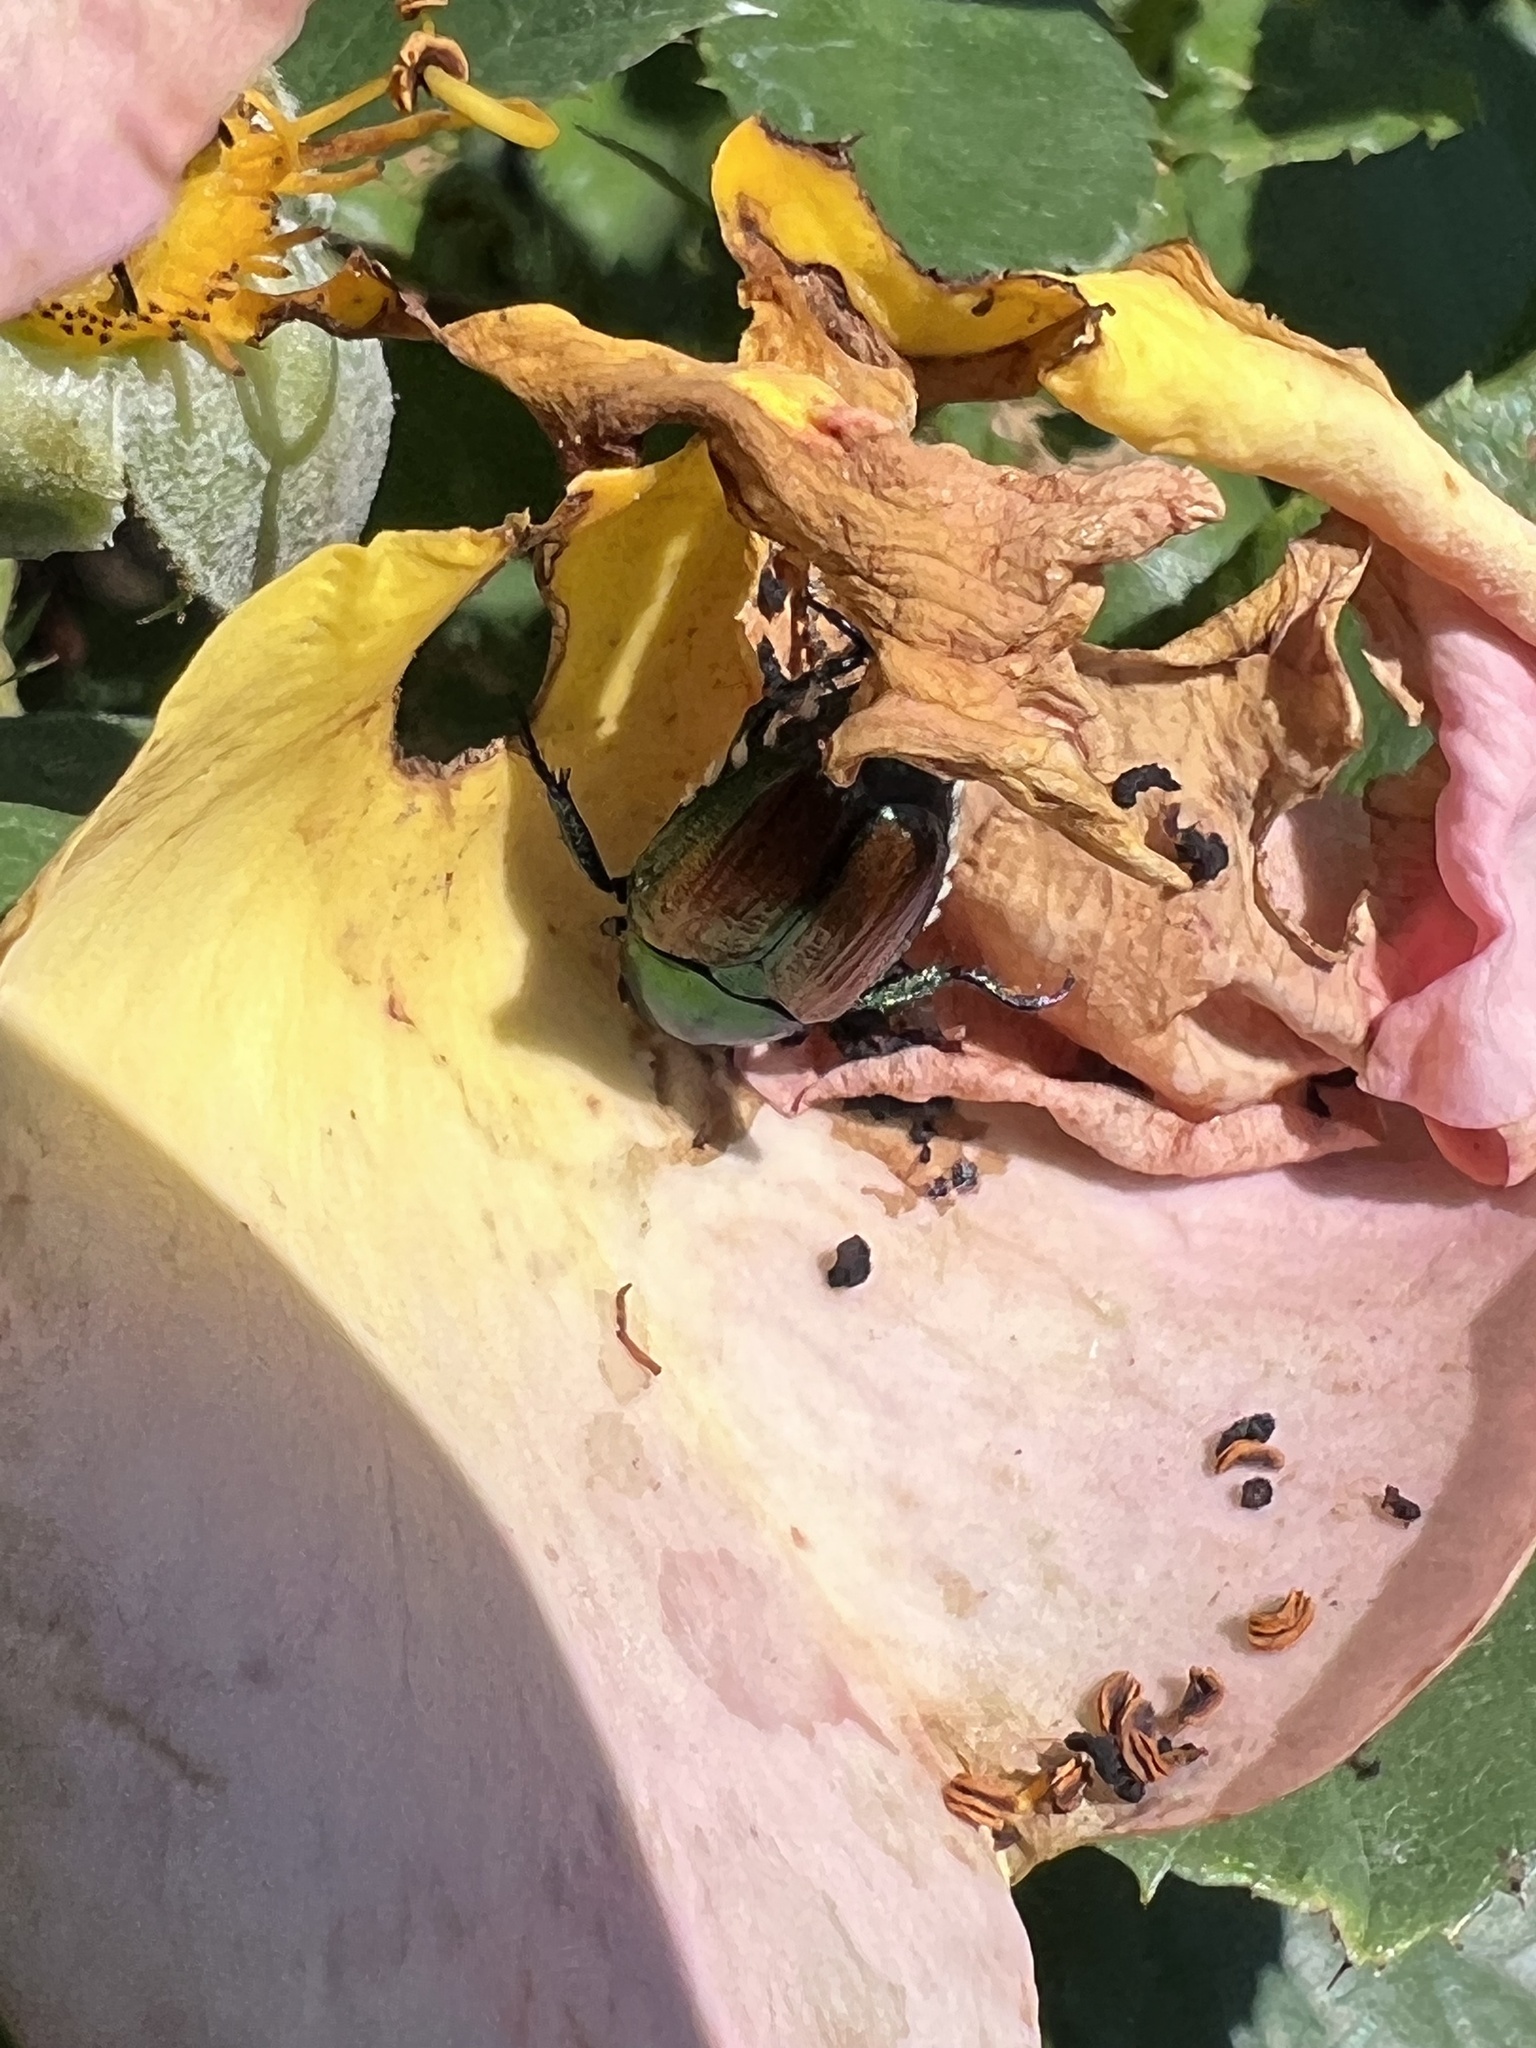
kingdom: Animalia
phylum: Arthropoda
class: Insecta
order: Coleoptera
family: Scarabaeidae
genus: Popillia
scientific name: Popillia japonica
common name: Japanese beetle
